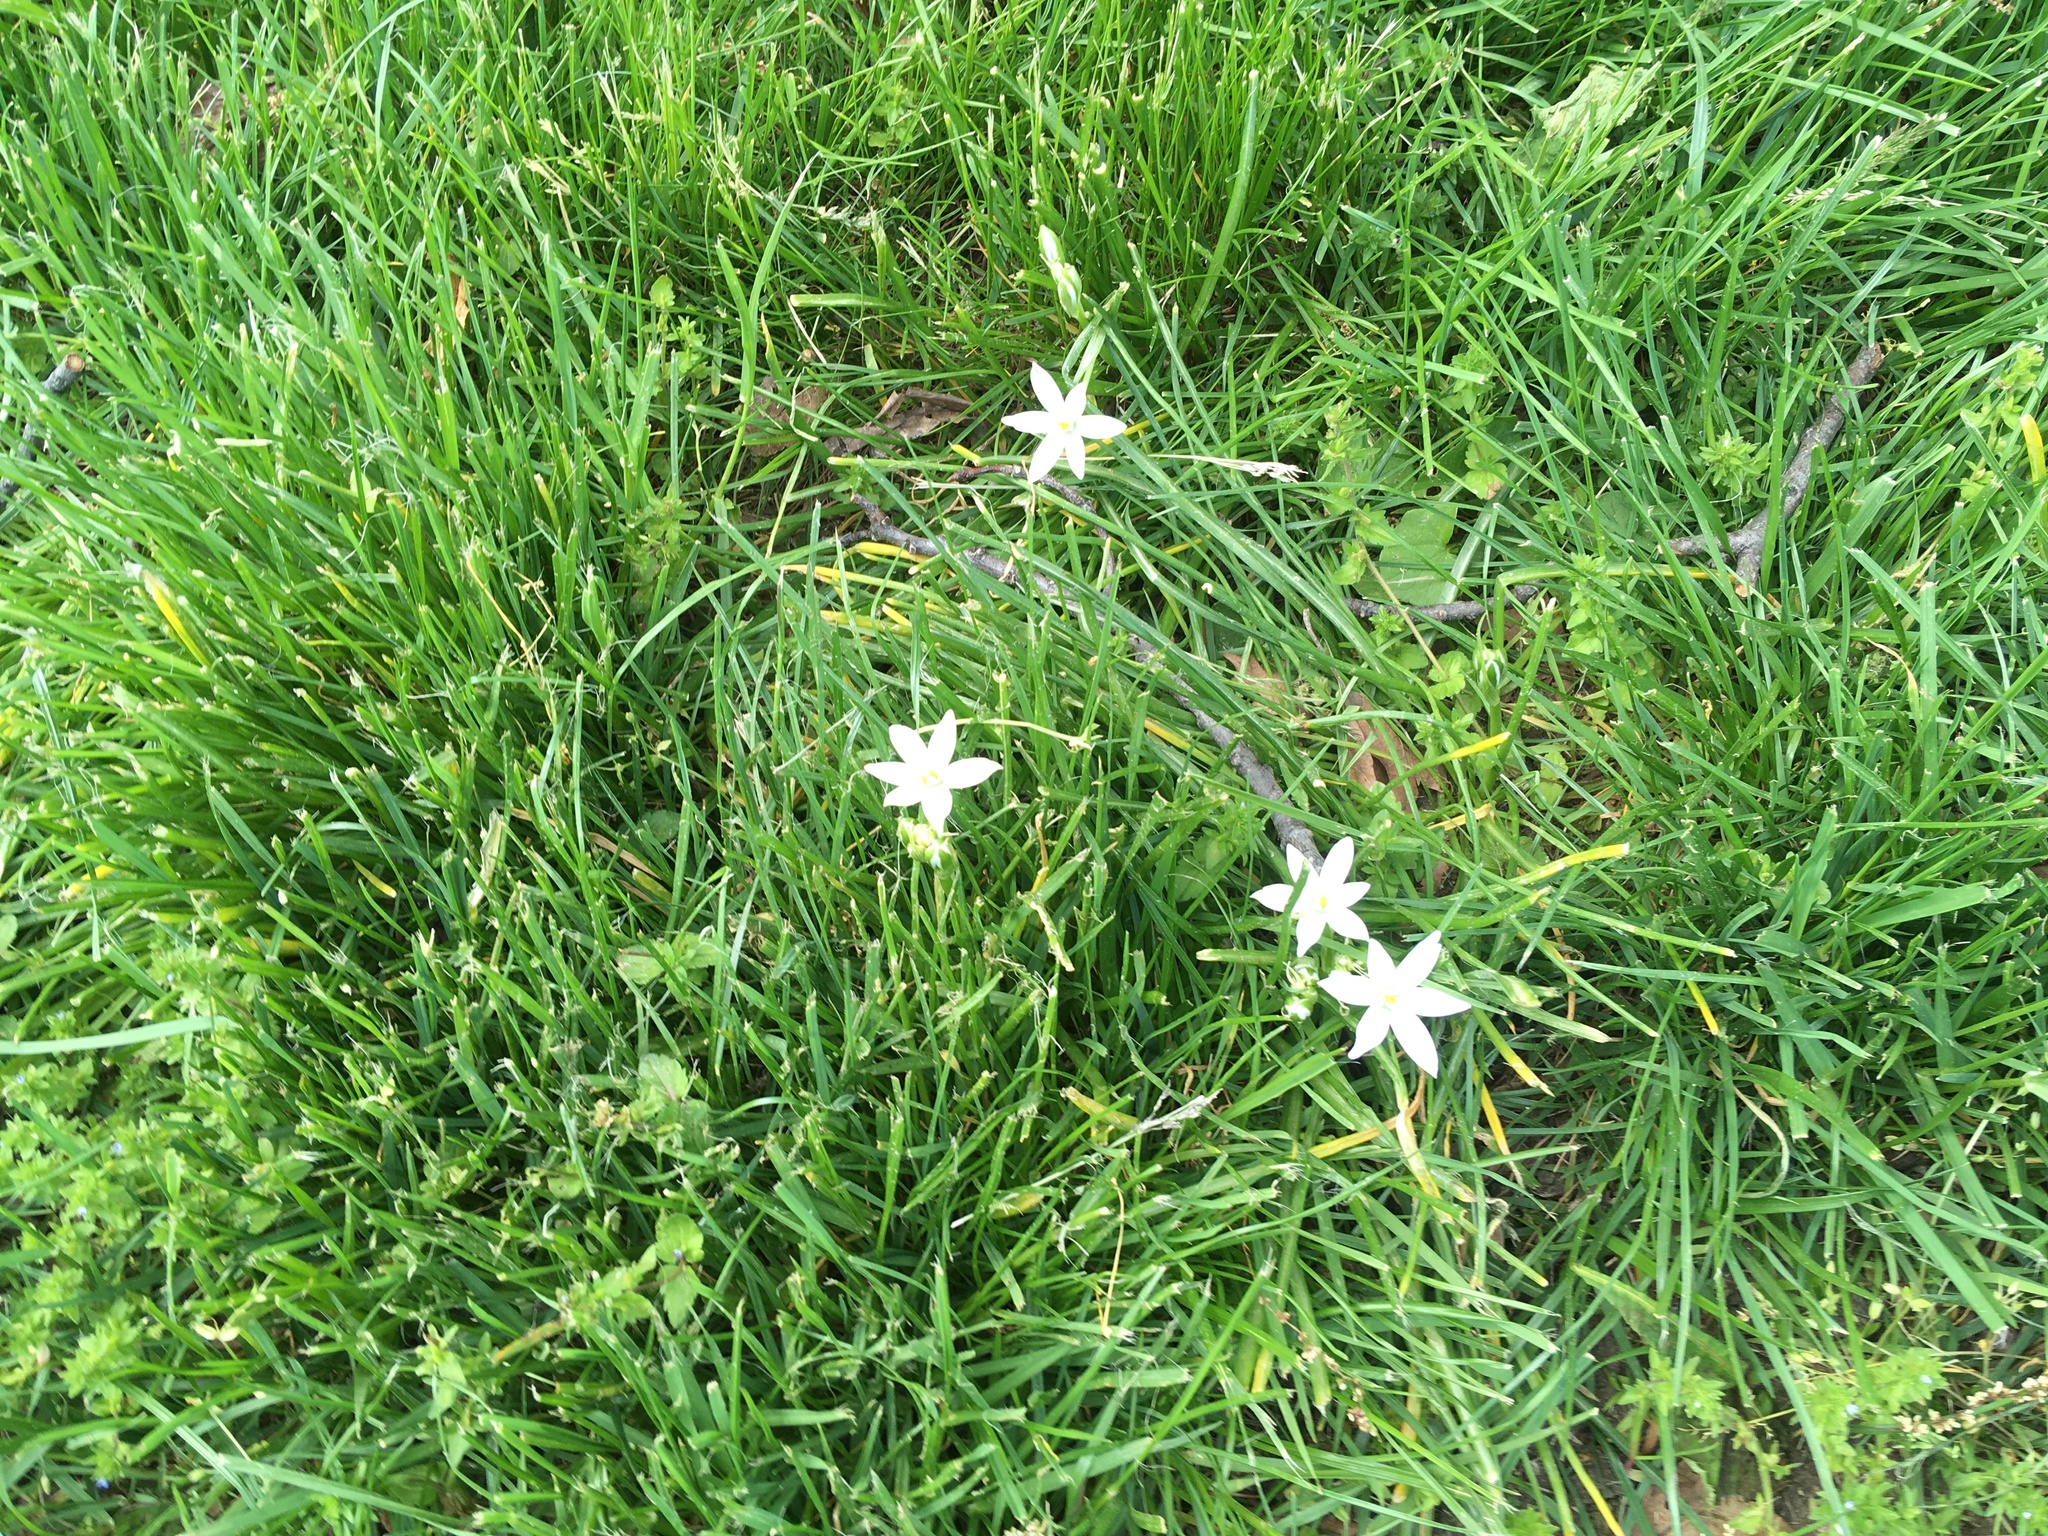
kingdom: Plantae
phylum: Tracheophyta
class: Liliopsida
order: Asparagales
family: Asparagaceae
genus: Ornithogalum
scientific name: Ornithogalum umbellatum
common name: Garden star-of-bethlehem
